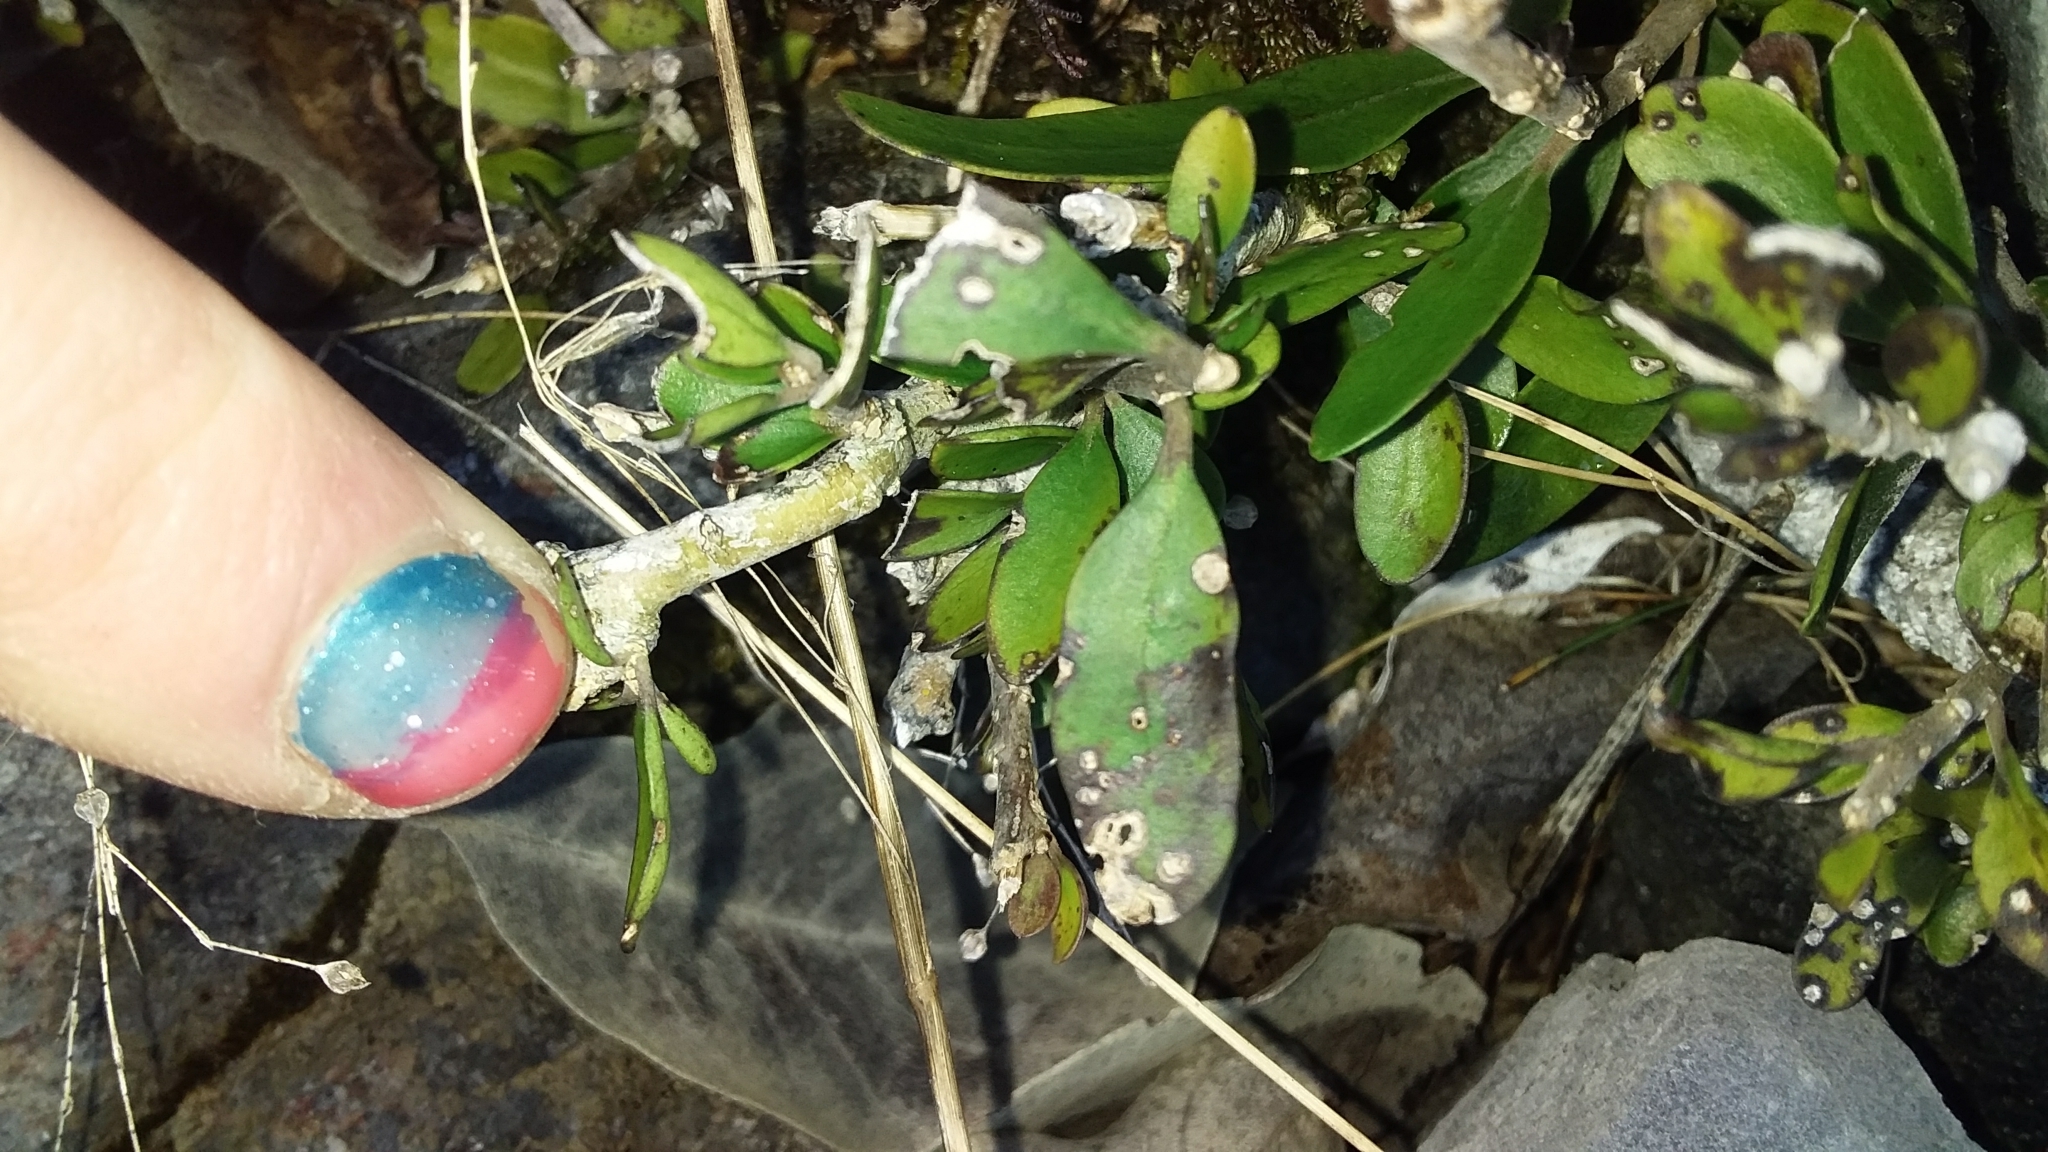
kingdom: Plantae
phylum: Tracheophyta
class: Magnoliopsida
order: Malpighiales
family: Violaceae
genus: Melicytus
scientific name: Melicytus obovatus
